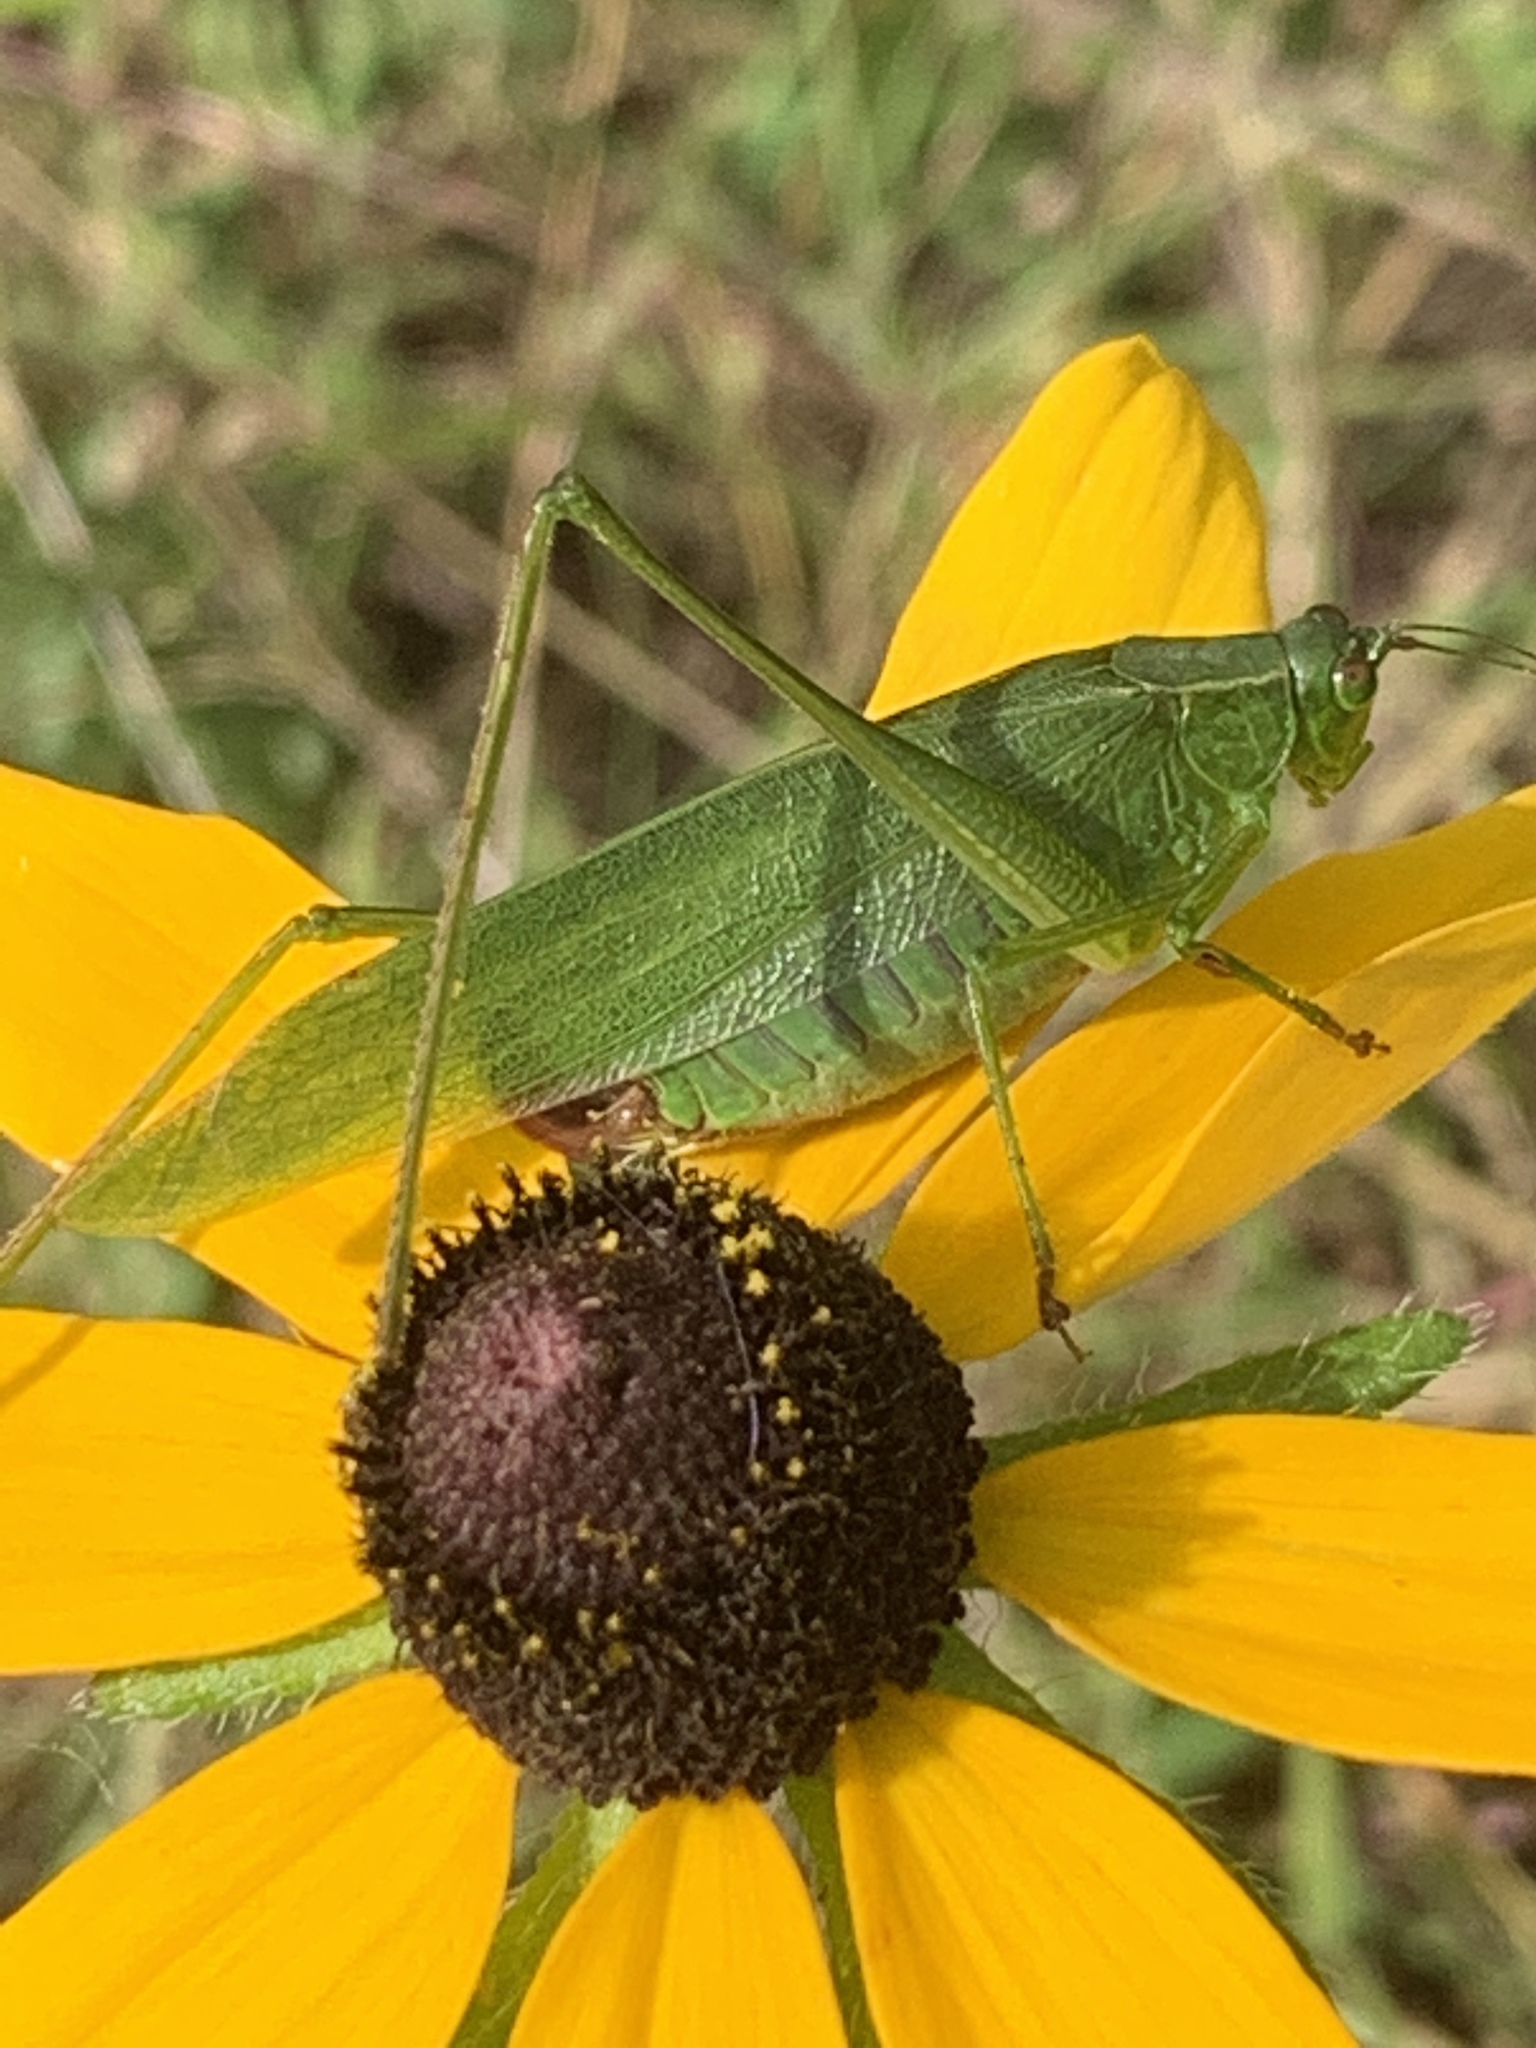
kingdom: Animalia
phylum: Arthropoda
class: Insecta
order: Orthoptera
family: Tettigoniidae
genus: Scudderia
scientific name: Scudderia furcata
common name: Fork-tailed bush katydid
